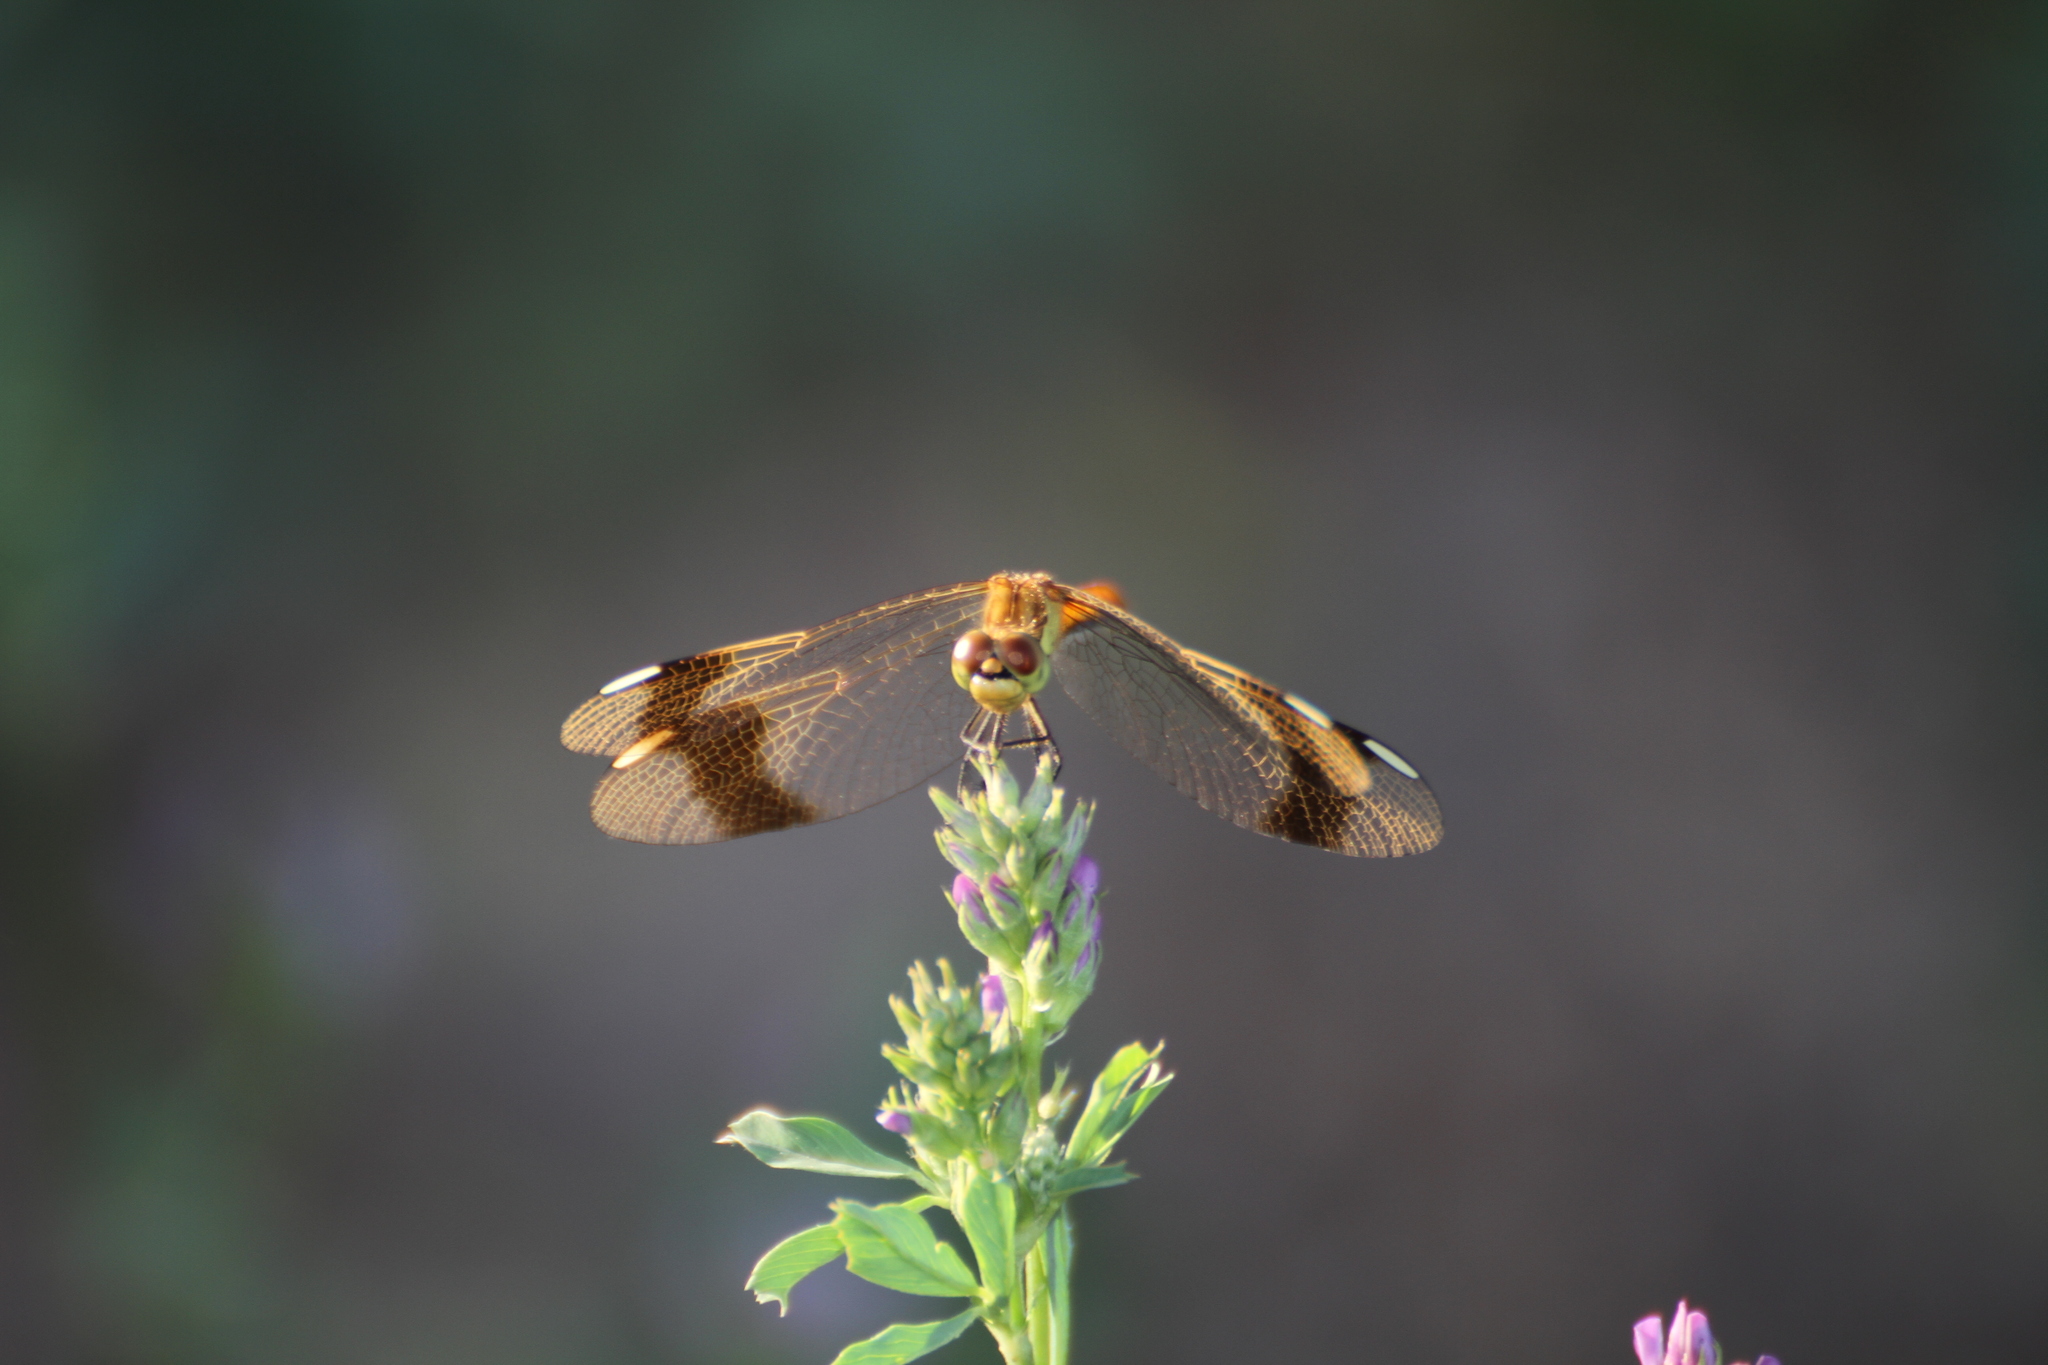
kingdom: Animalia
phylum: Arthropoda
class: Insecta
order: Odonata
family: Libellulidae
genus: Sympetrum
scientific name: Sympetrum pedemontanum
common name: Banded darter
